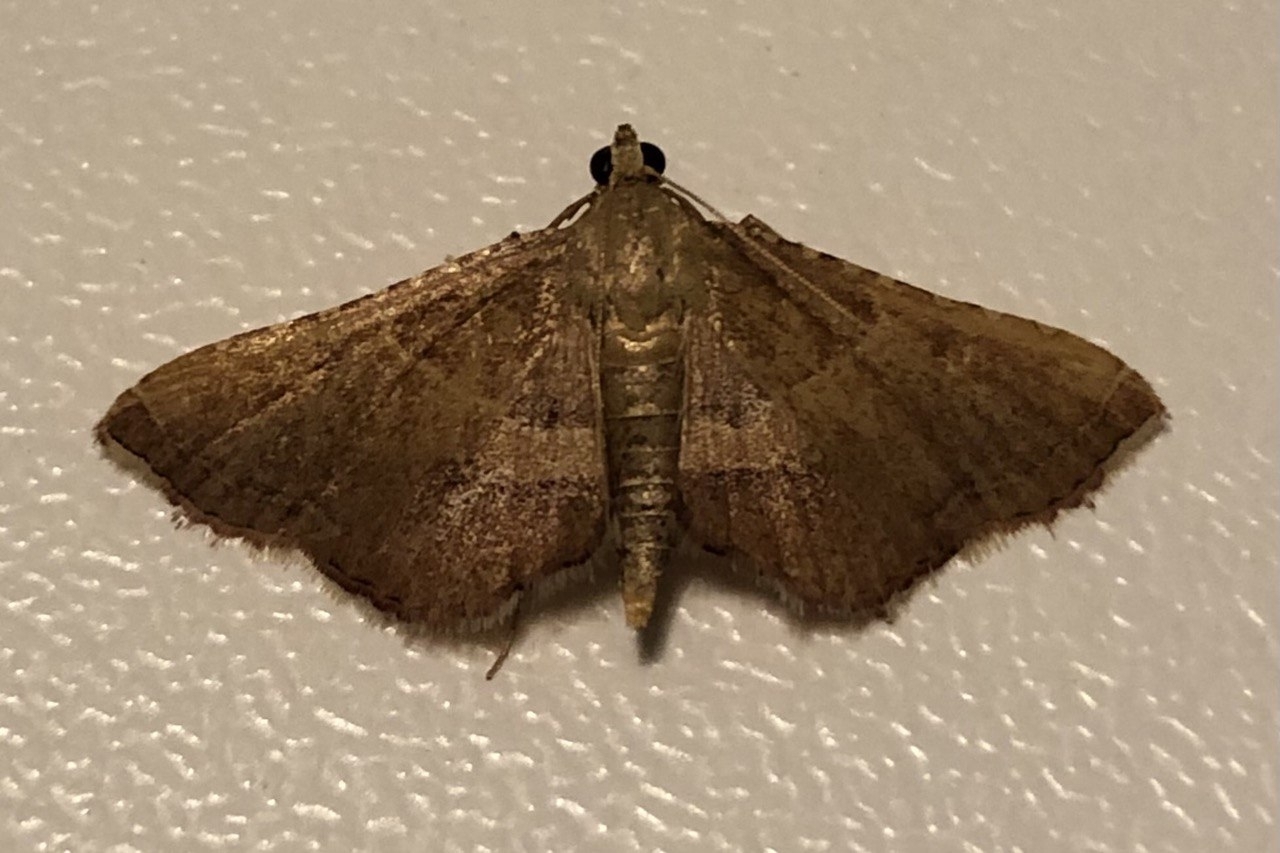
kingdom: Animalia
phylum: Arthropoda
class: Insecta
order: Lepidoptera
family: Pyralidae
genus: Endotricha
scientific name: Endotricha flammealis
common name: Rosy tabby
